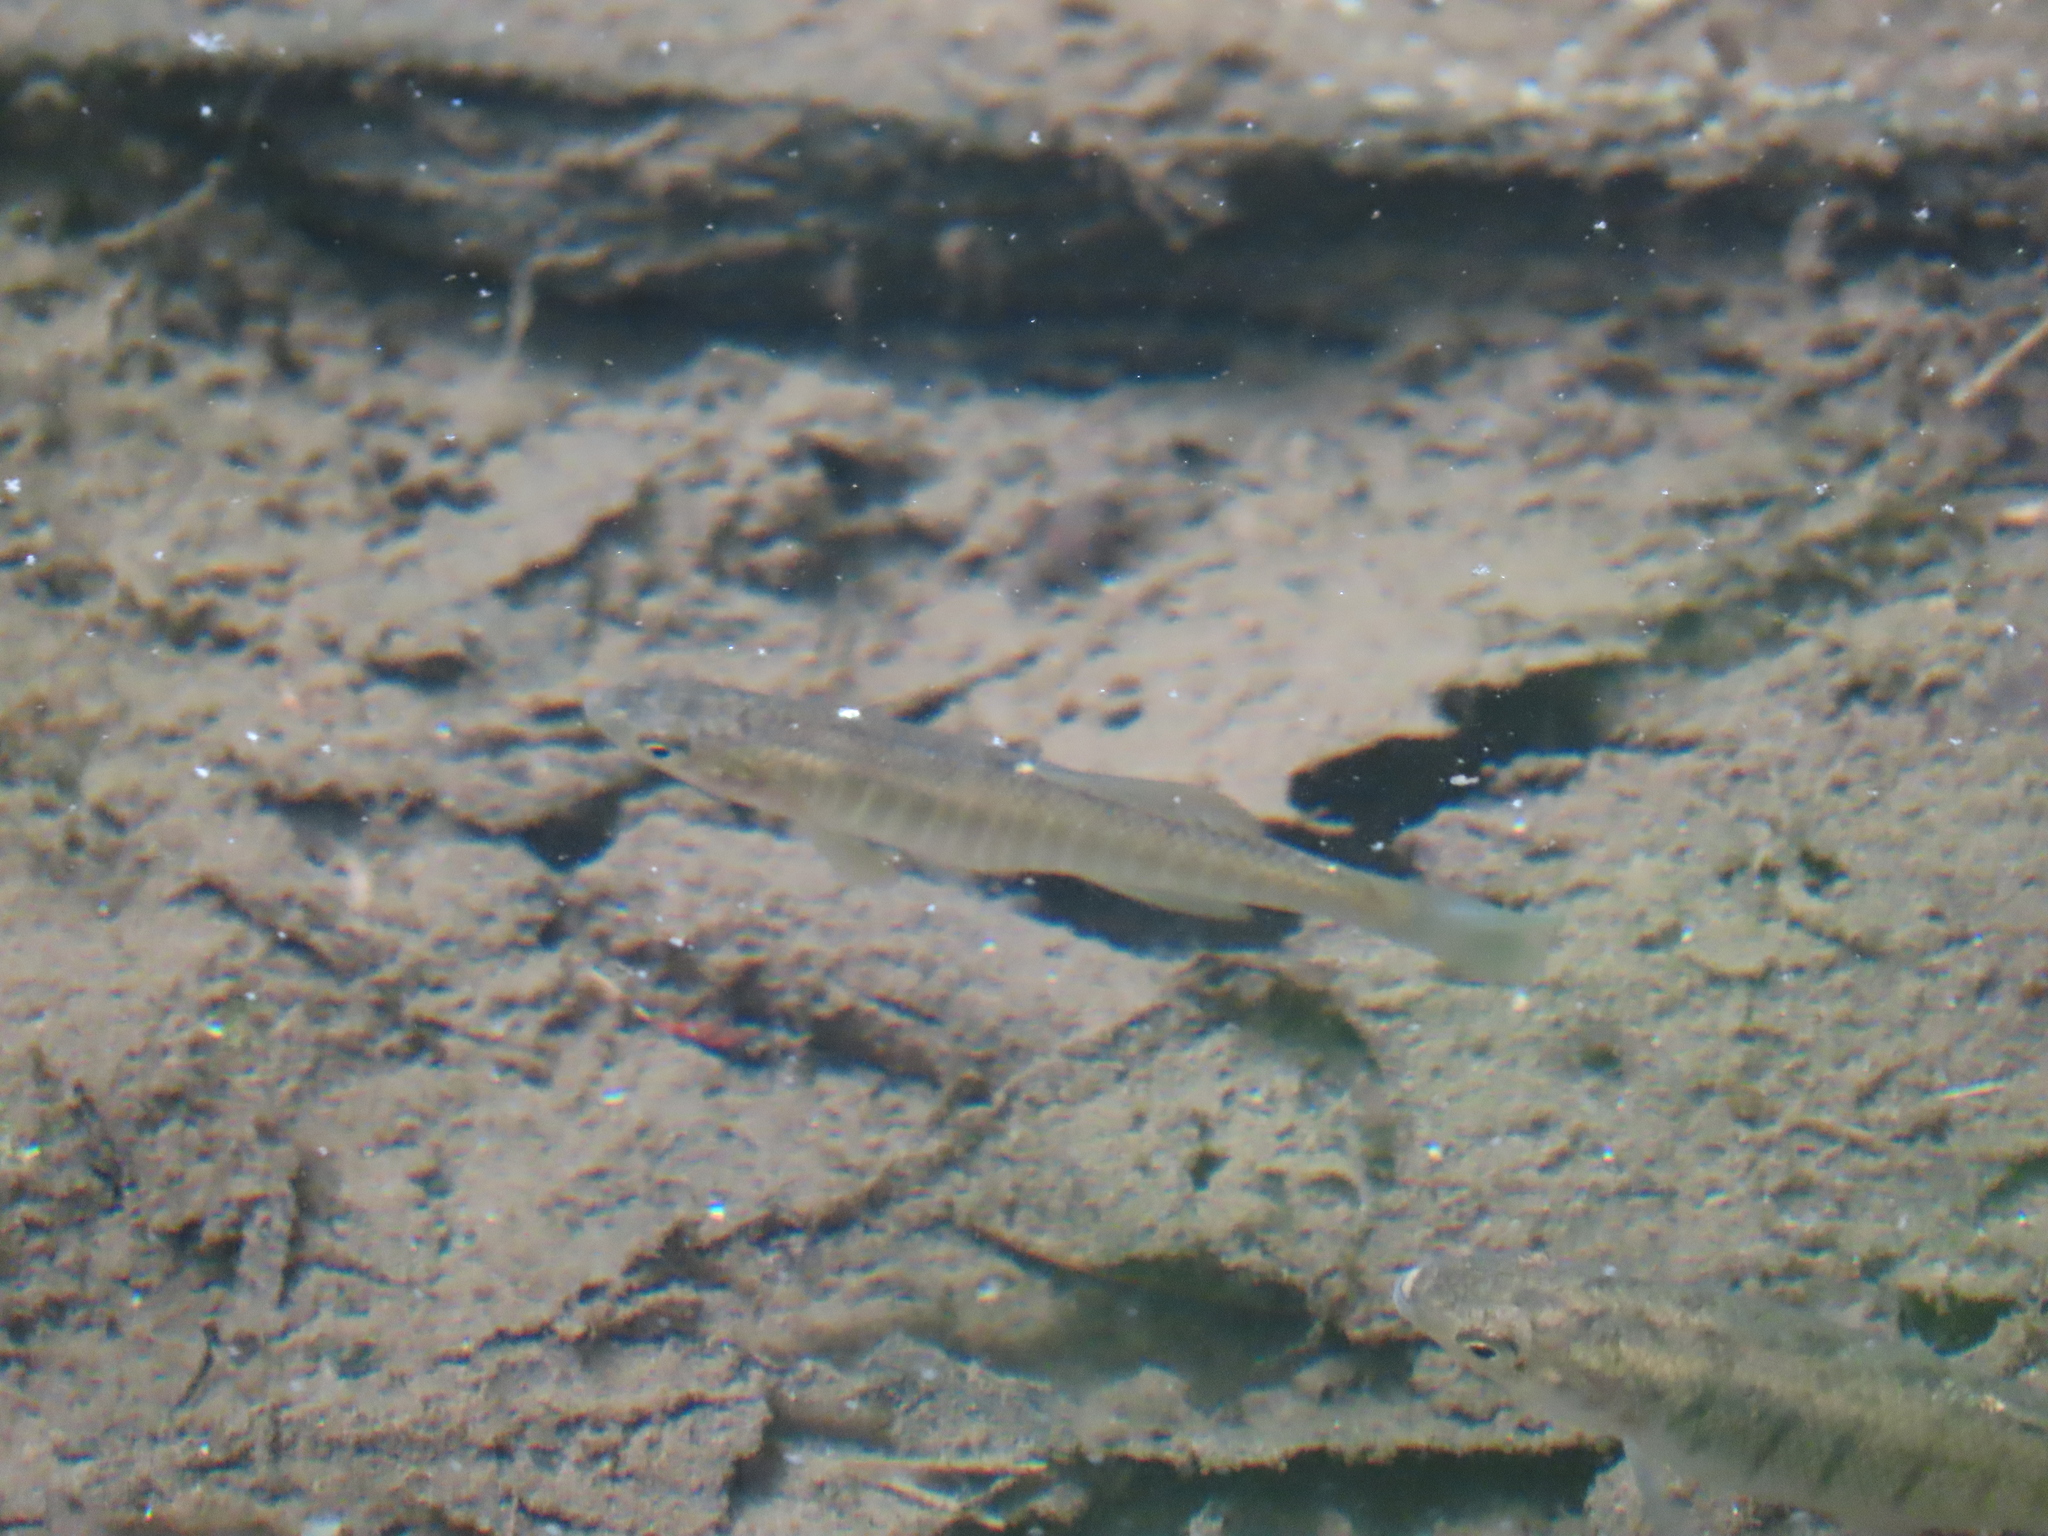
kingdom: Animalia
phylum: Chordata
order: Cyprinodontiformes
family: Fundulidae
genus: Fundulus
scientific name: Fundulus diaphanus
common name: Banded killifish
